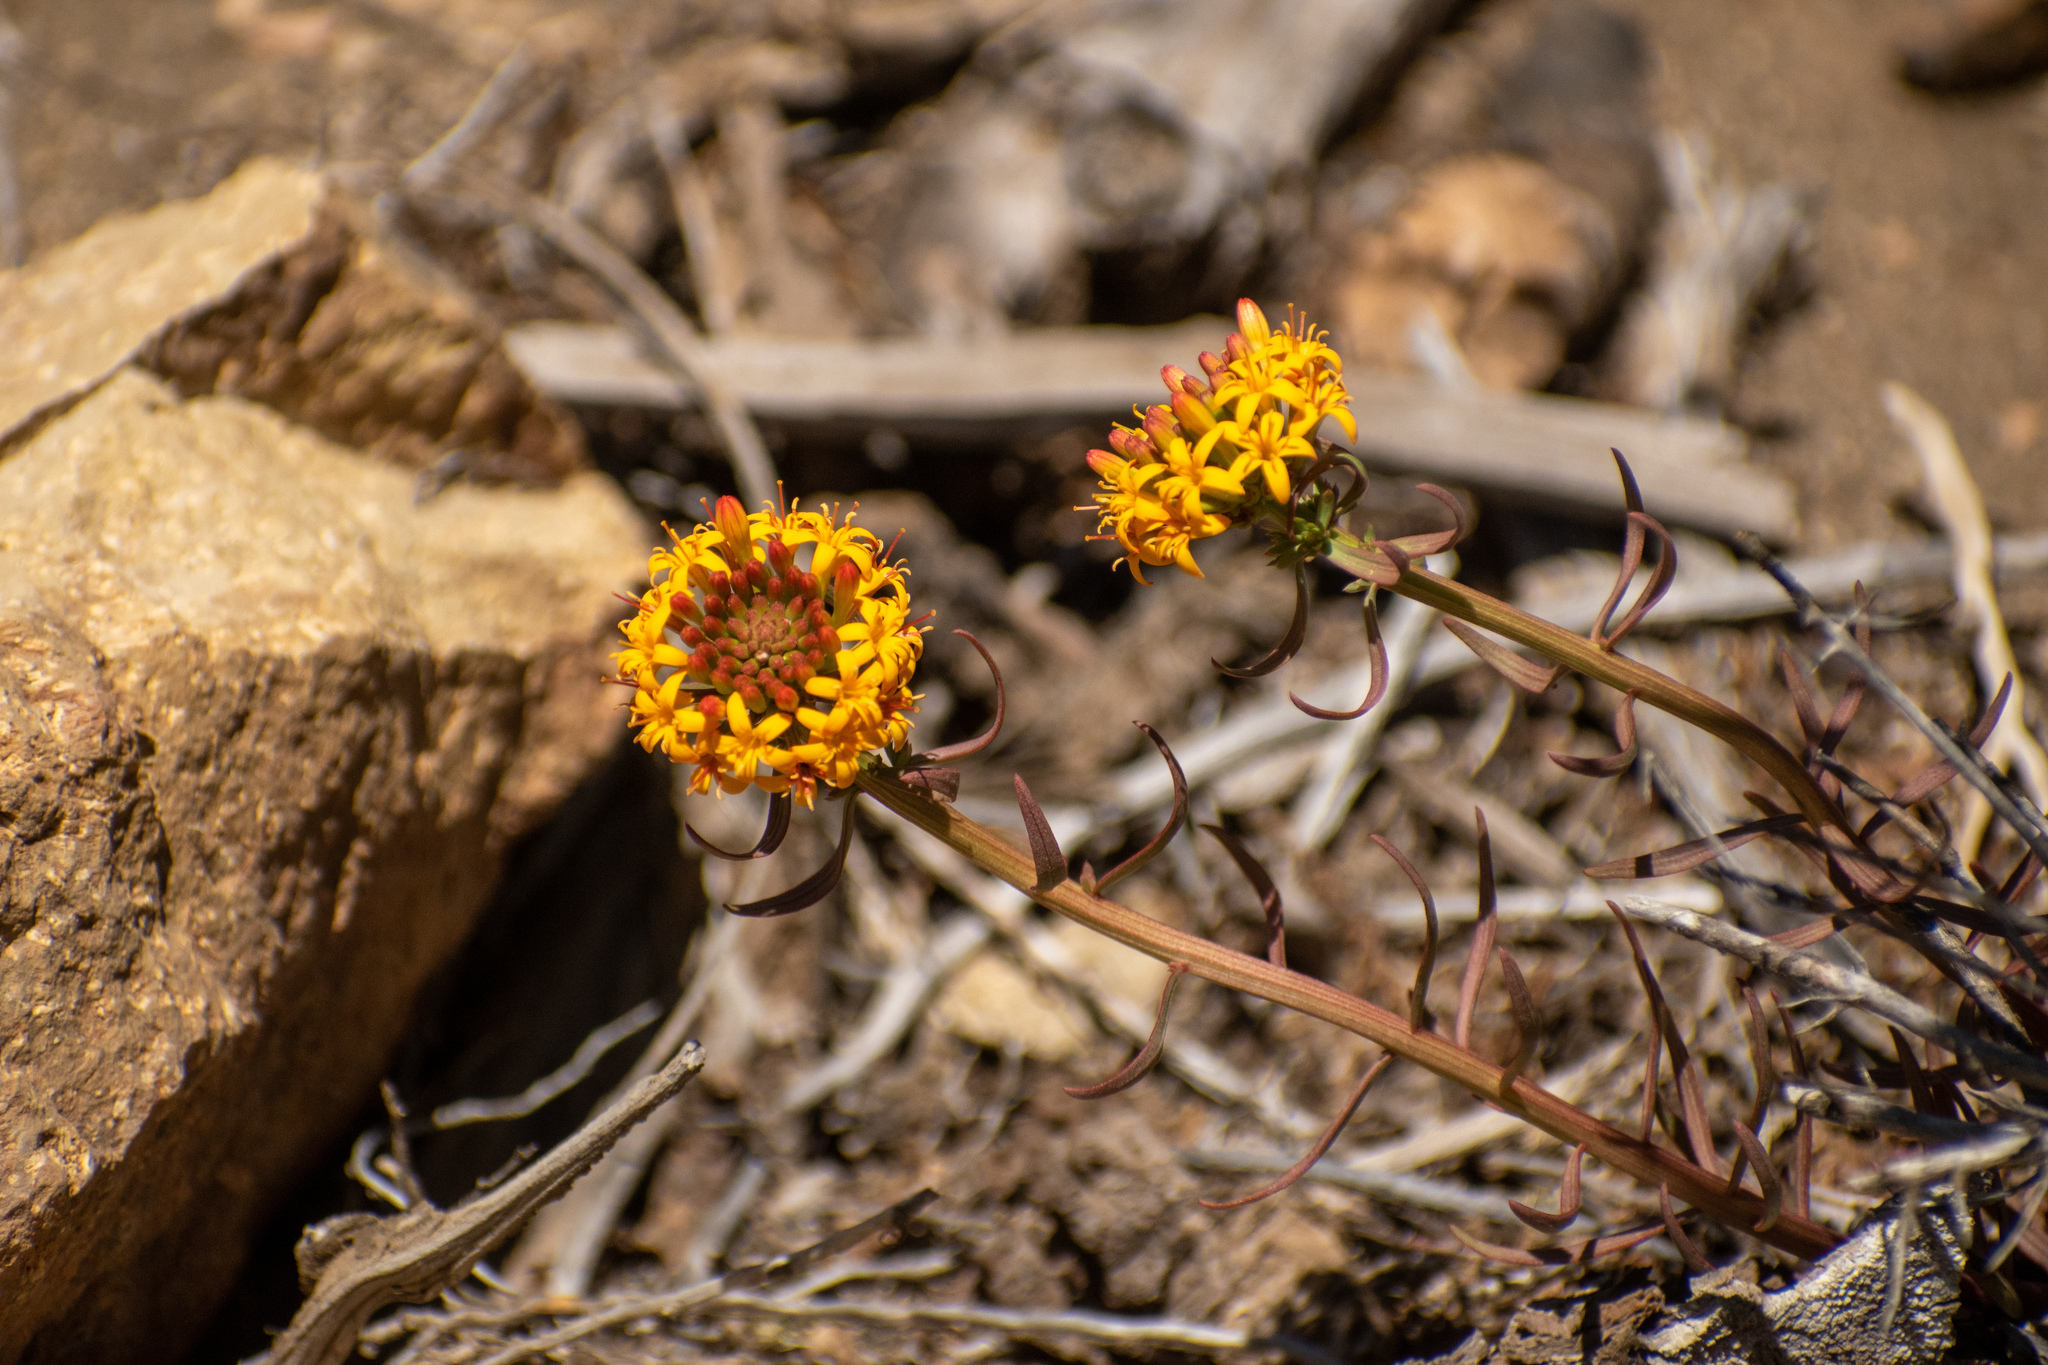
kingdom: Plantae
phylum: Tracheophyta
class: Magnoliopsida
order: Santalales
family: Schoepfiaceae
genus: Quinchamalium
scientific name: Quinchamalium chilense
